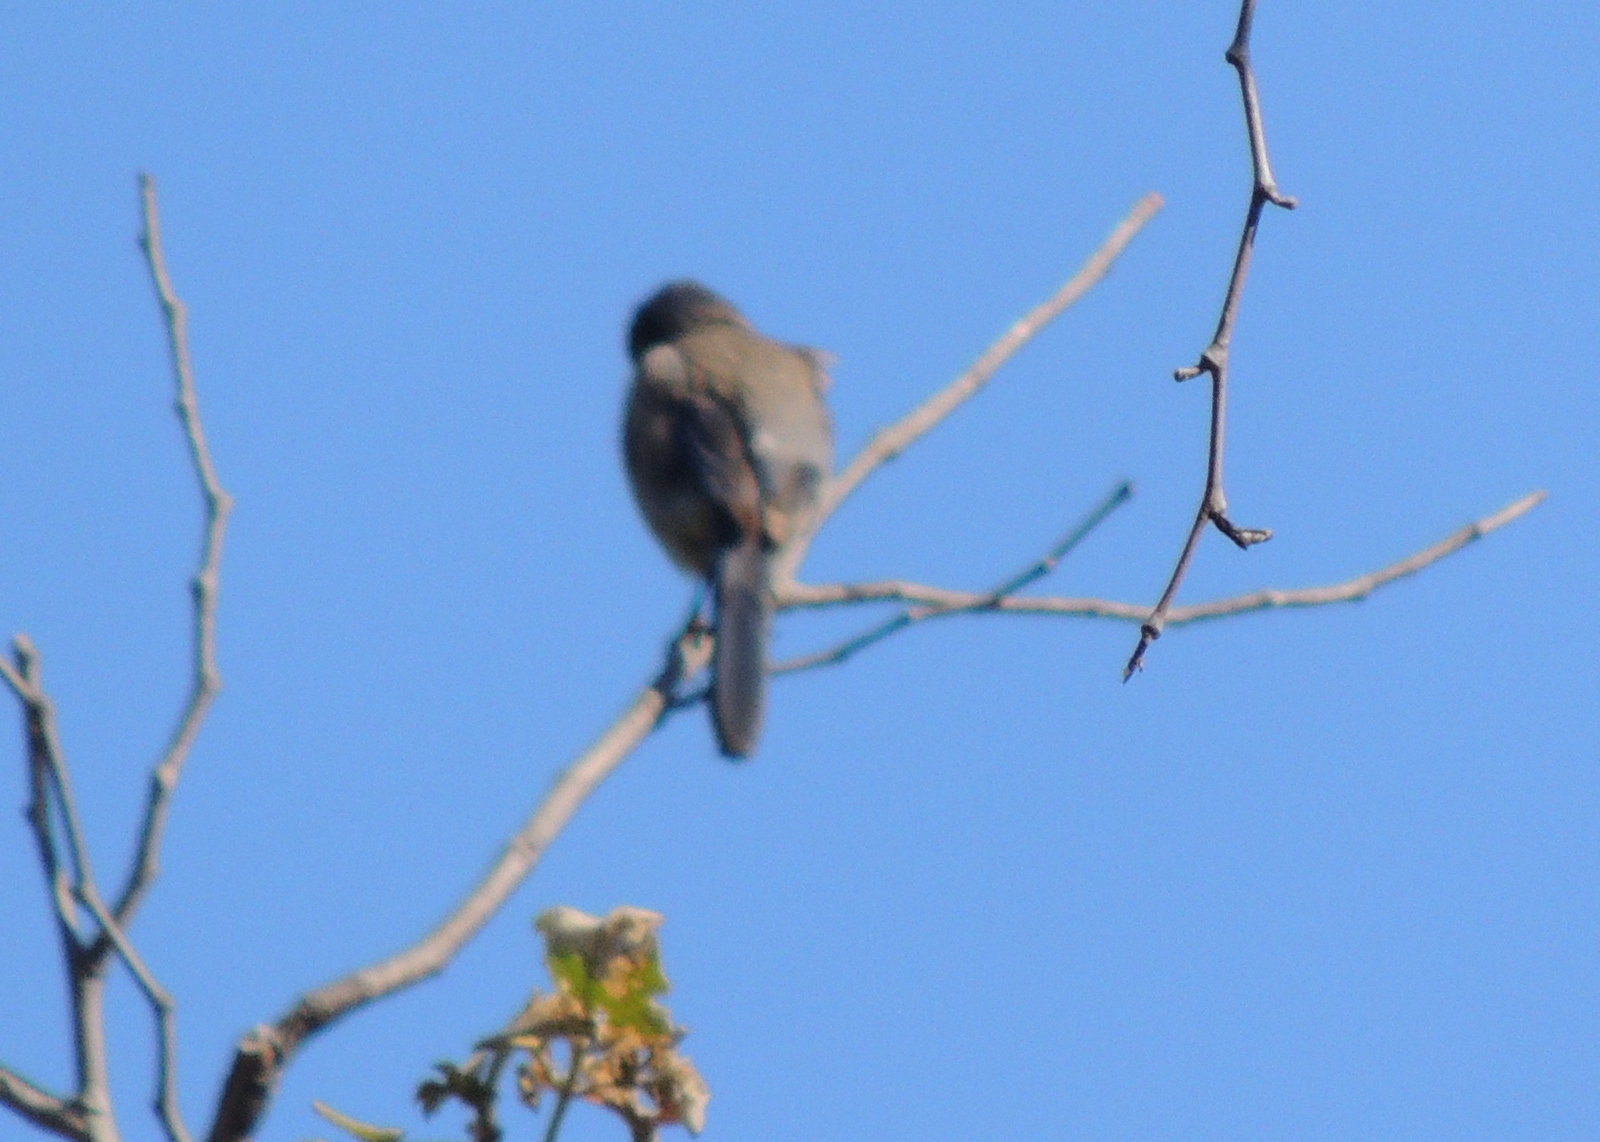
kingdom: Animalia
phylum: Chordata
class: Aves
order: Passeriformes
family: Corvidae
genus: Aphelocoma
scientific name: Aphelocoma californica
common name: California scrub-jay
